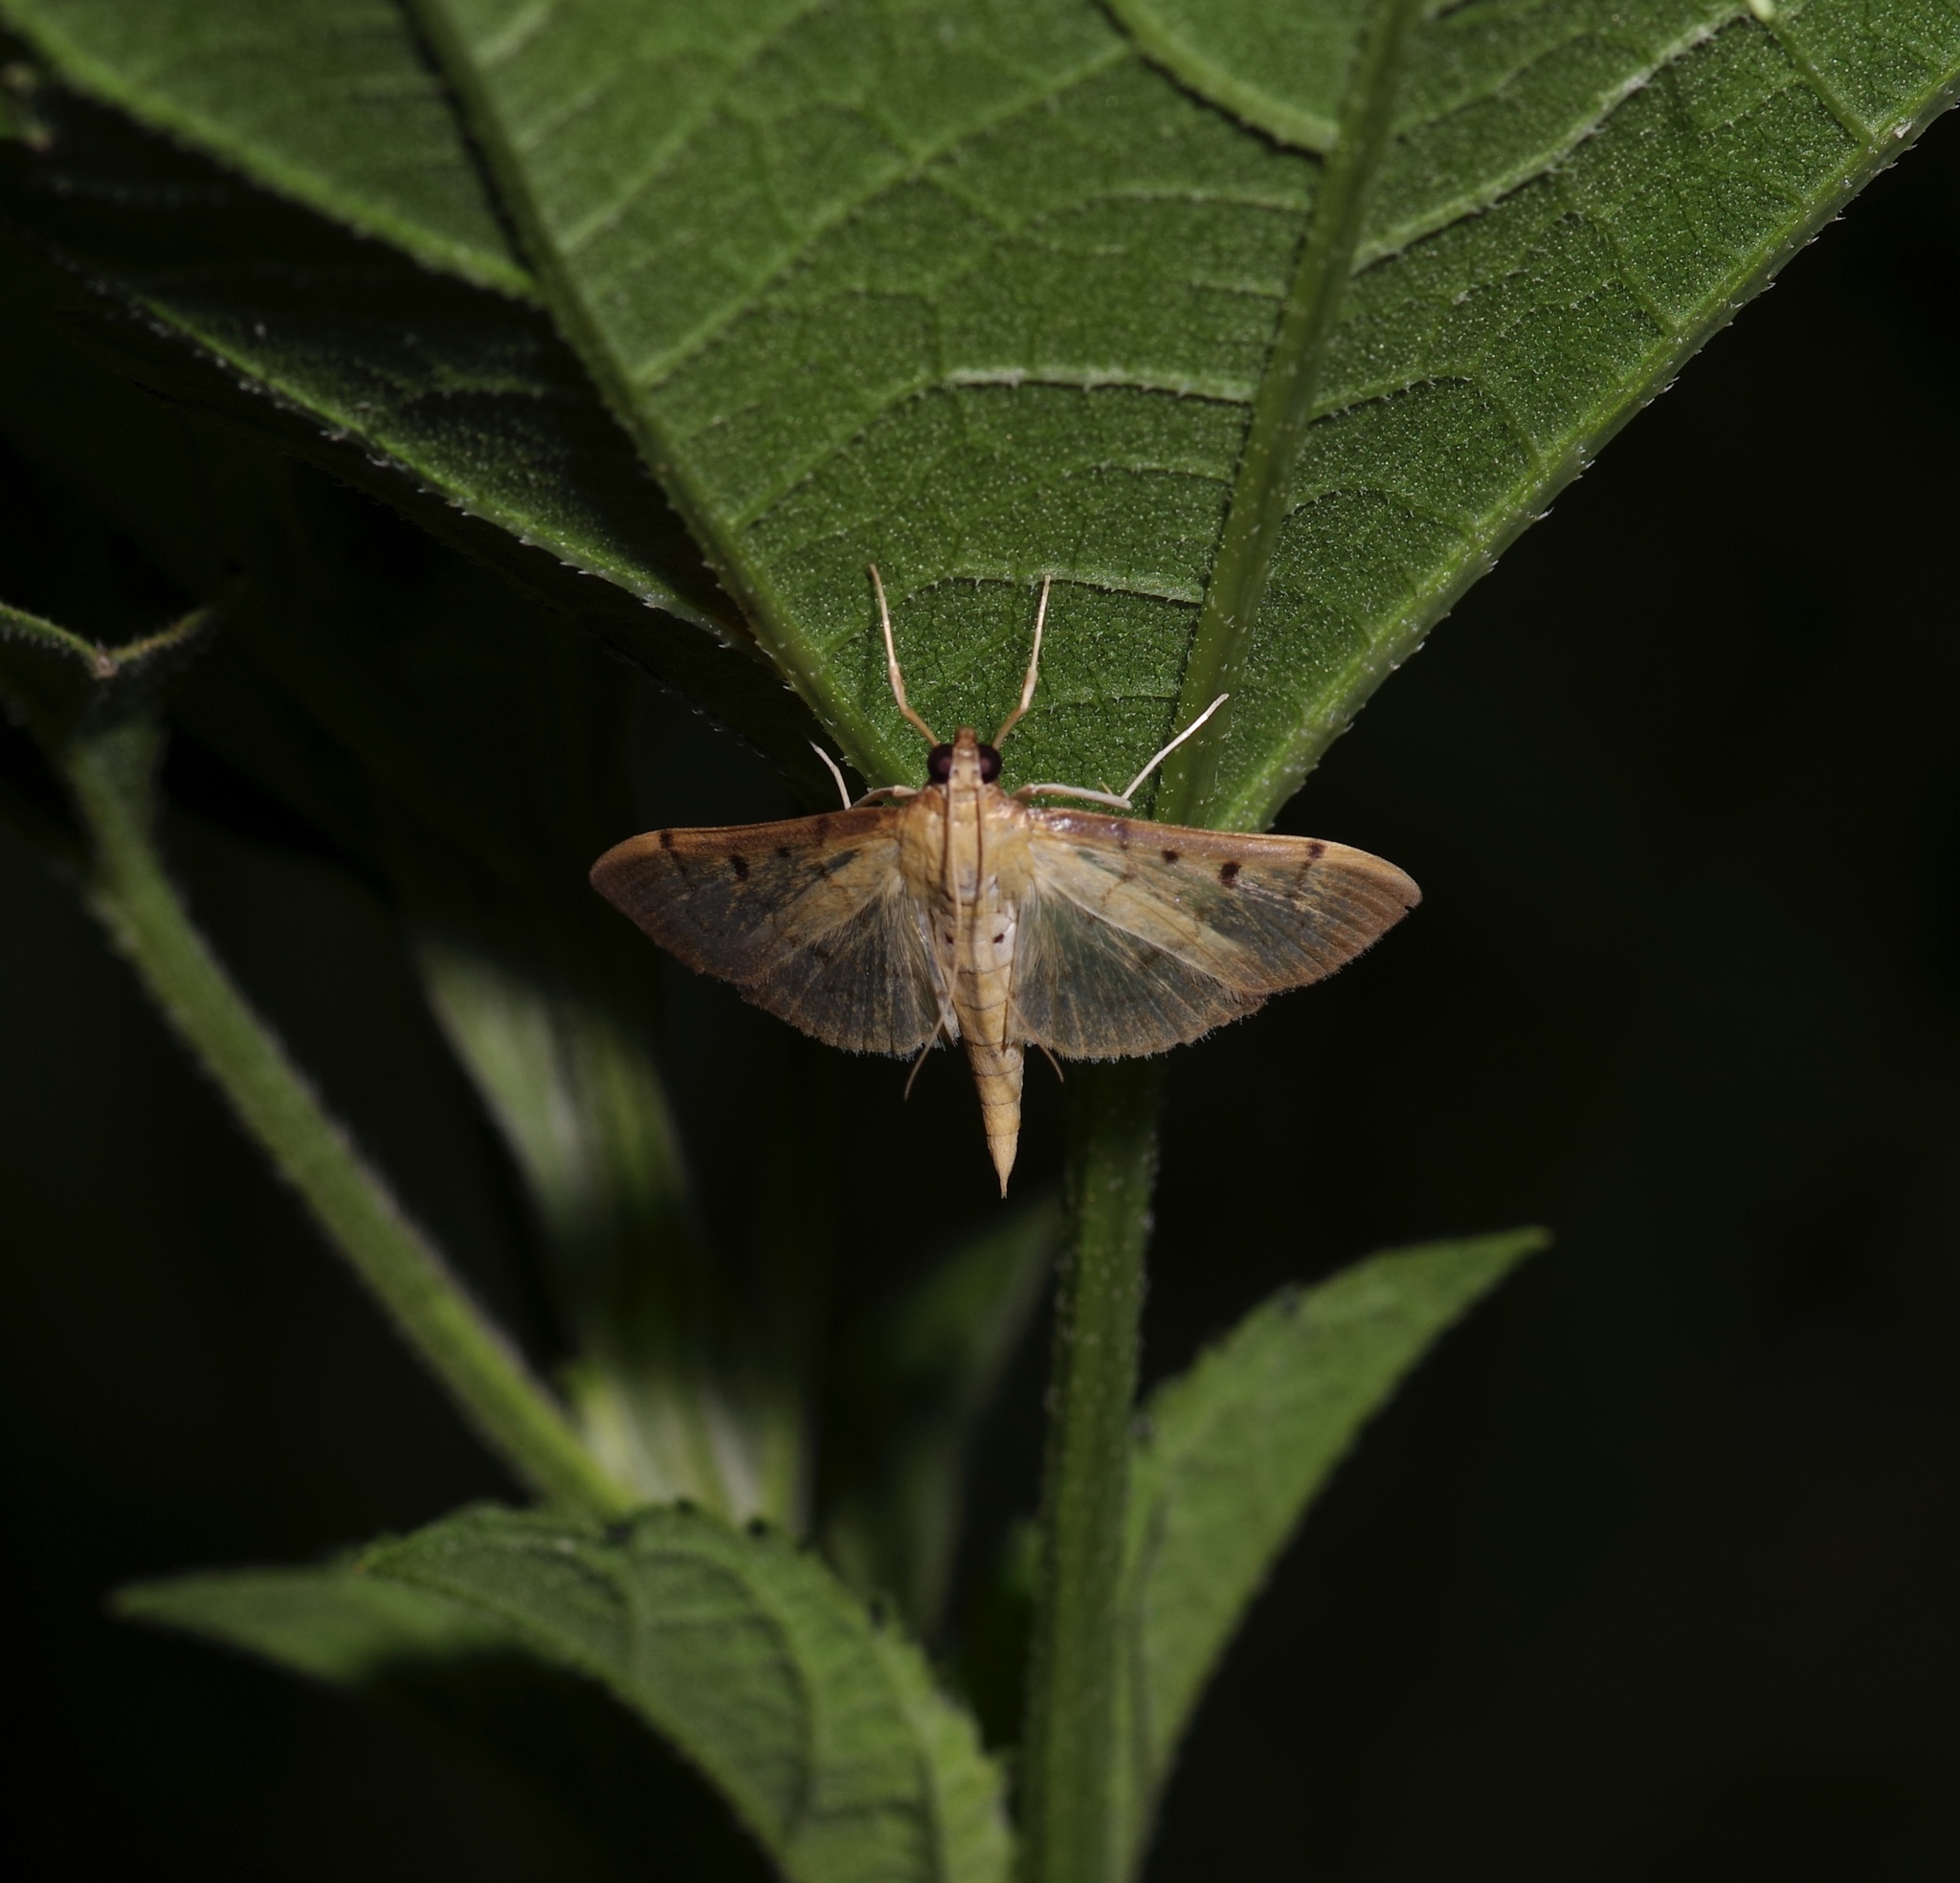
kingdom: Animalia
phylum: Arthropoda
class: Insecta
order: Lepidoptera
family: Crambidae
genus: Herpetogramma
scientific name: Herpetogramma bipunctalis
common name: Southern beet webworm
